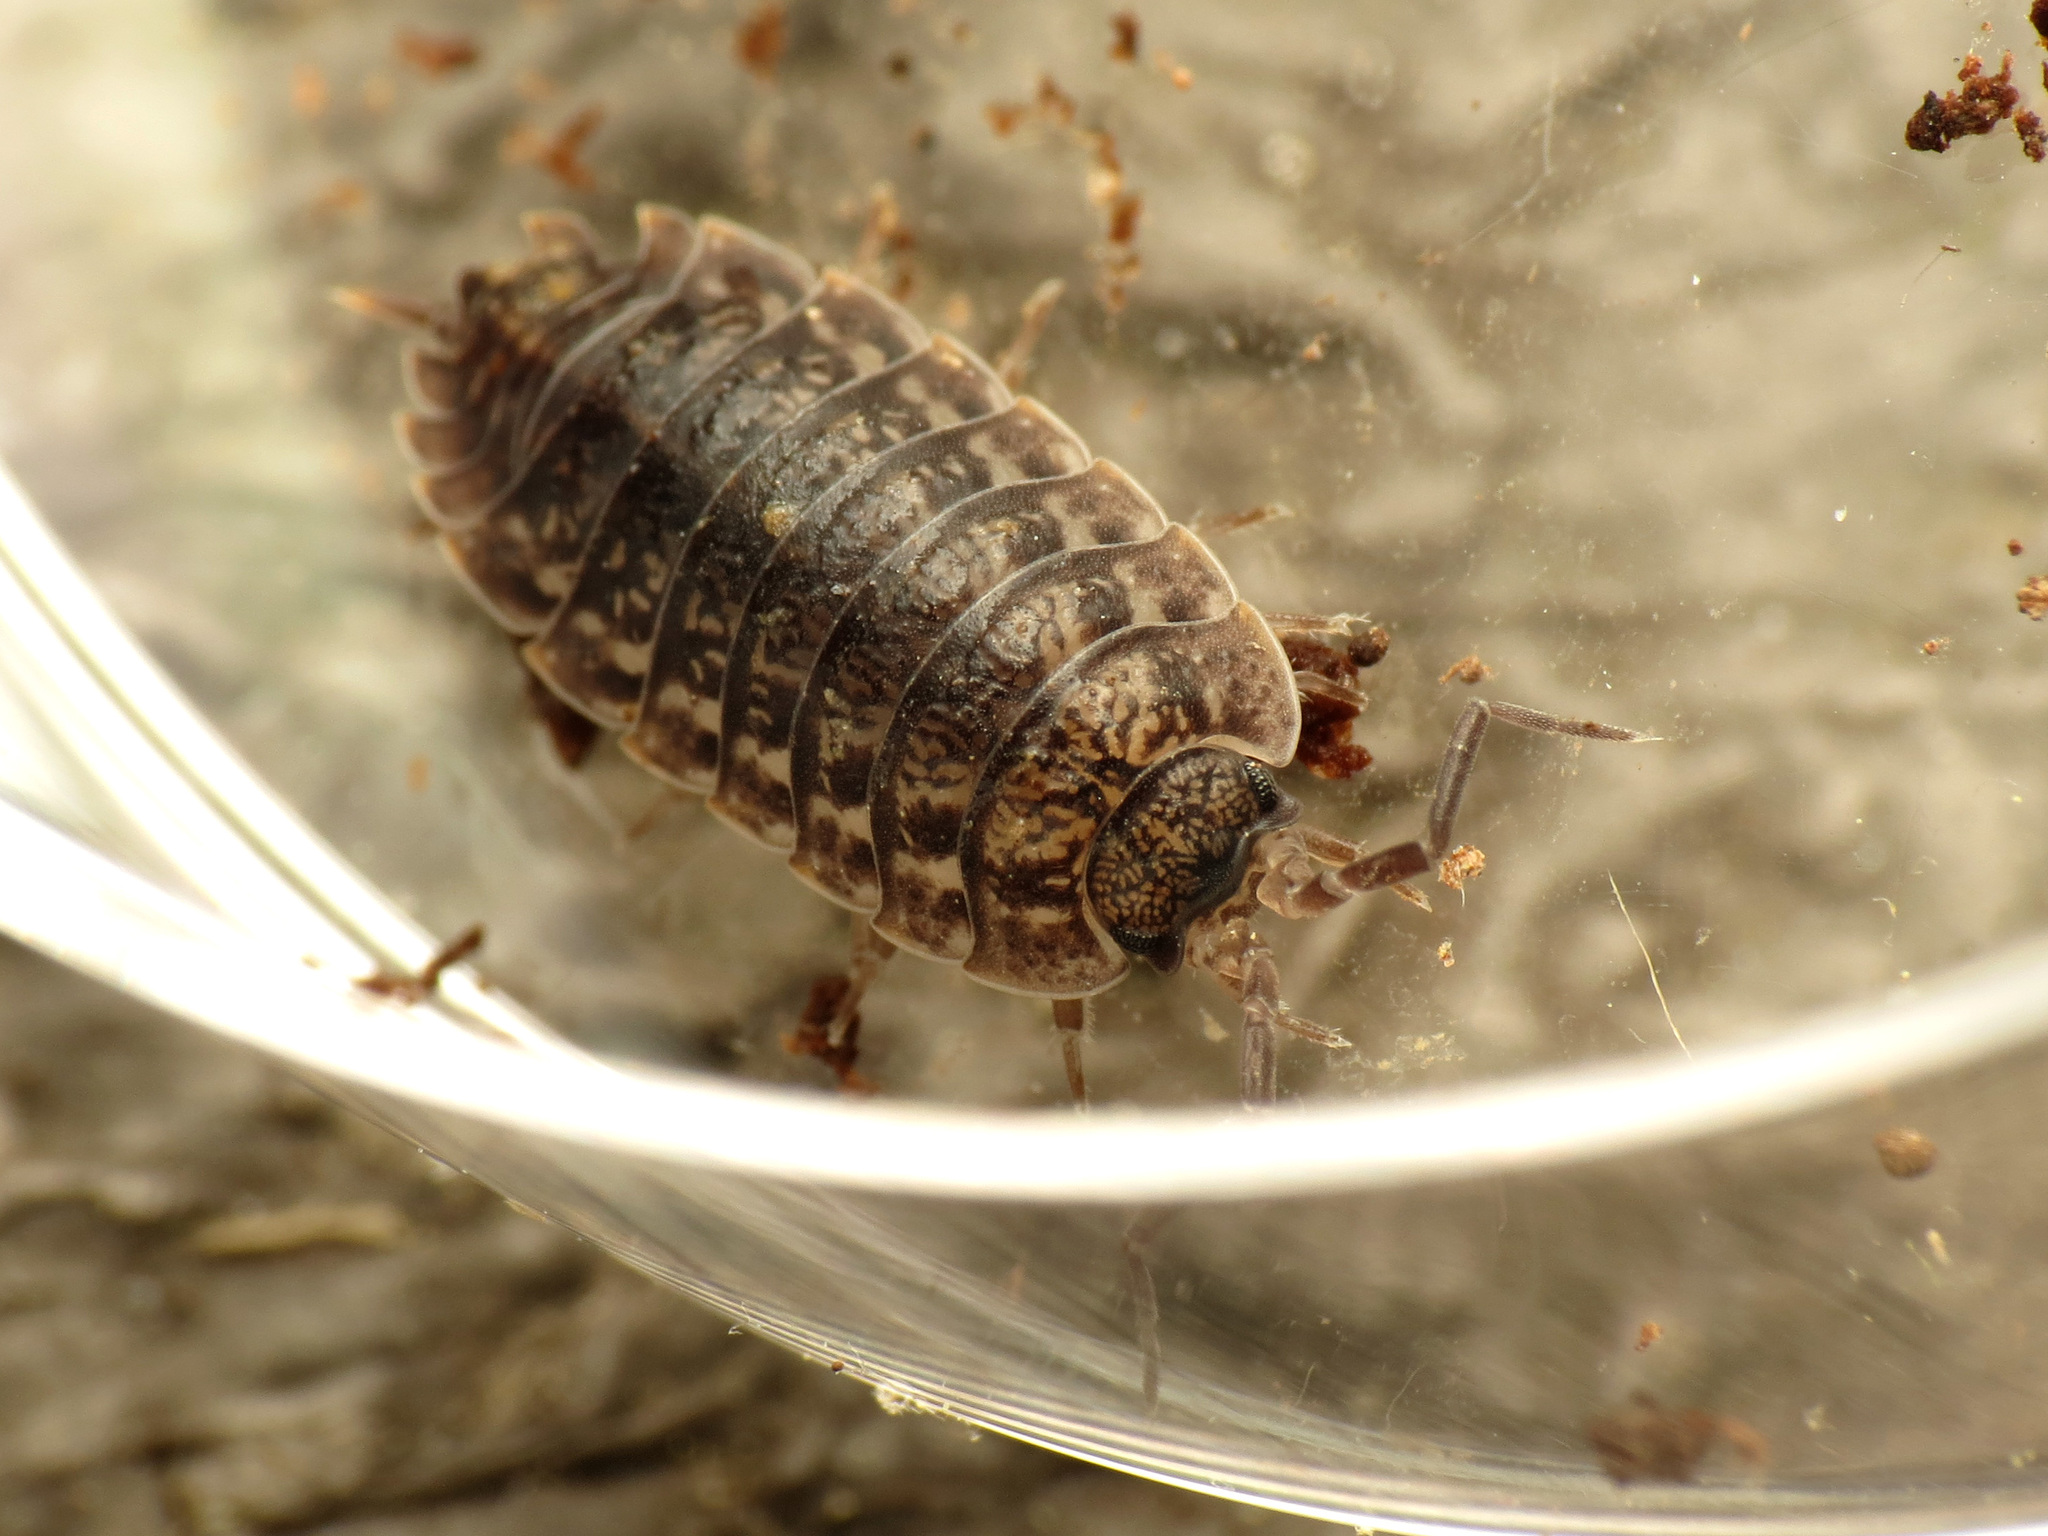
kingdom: Animalia
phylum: Arthropoda
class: Malacostraca
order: Isopoda
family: Trachelipodidae
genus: Trachelipus
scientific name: Trachelipus rathkii
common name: Isopod
